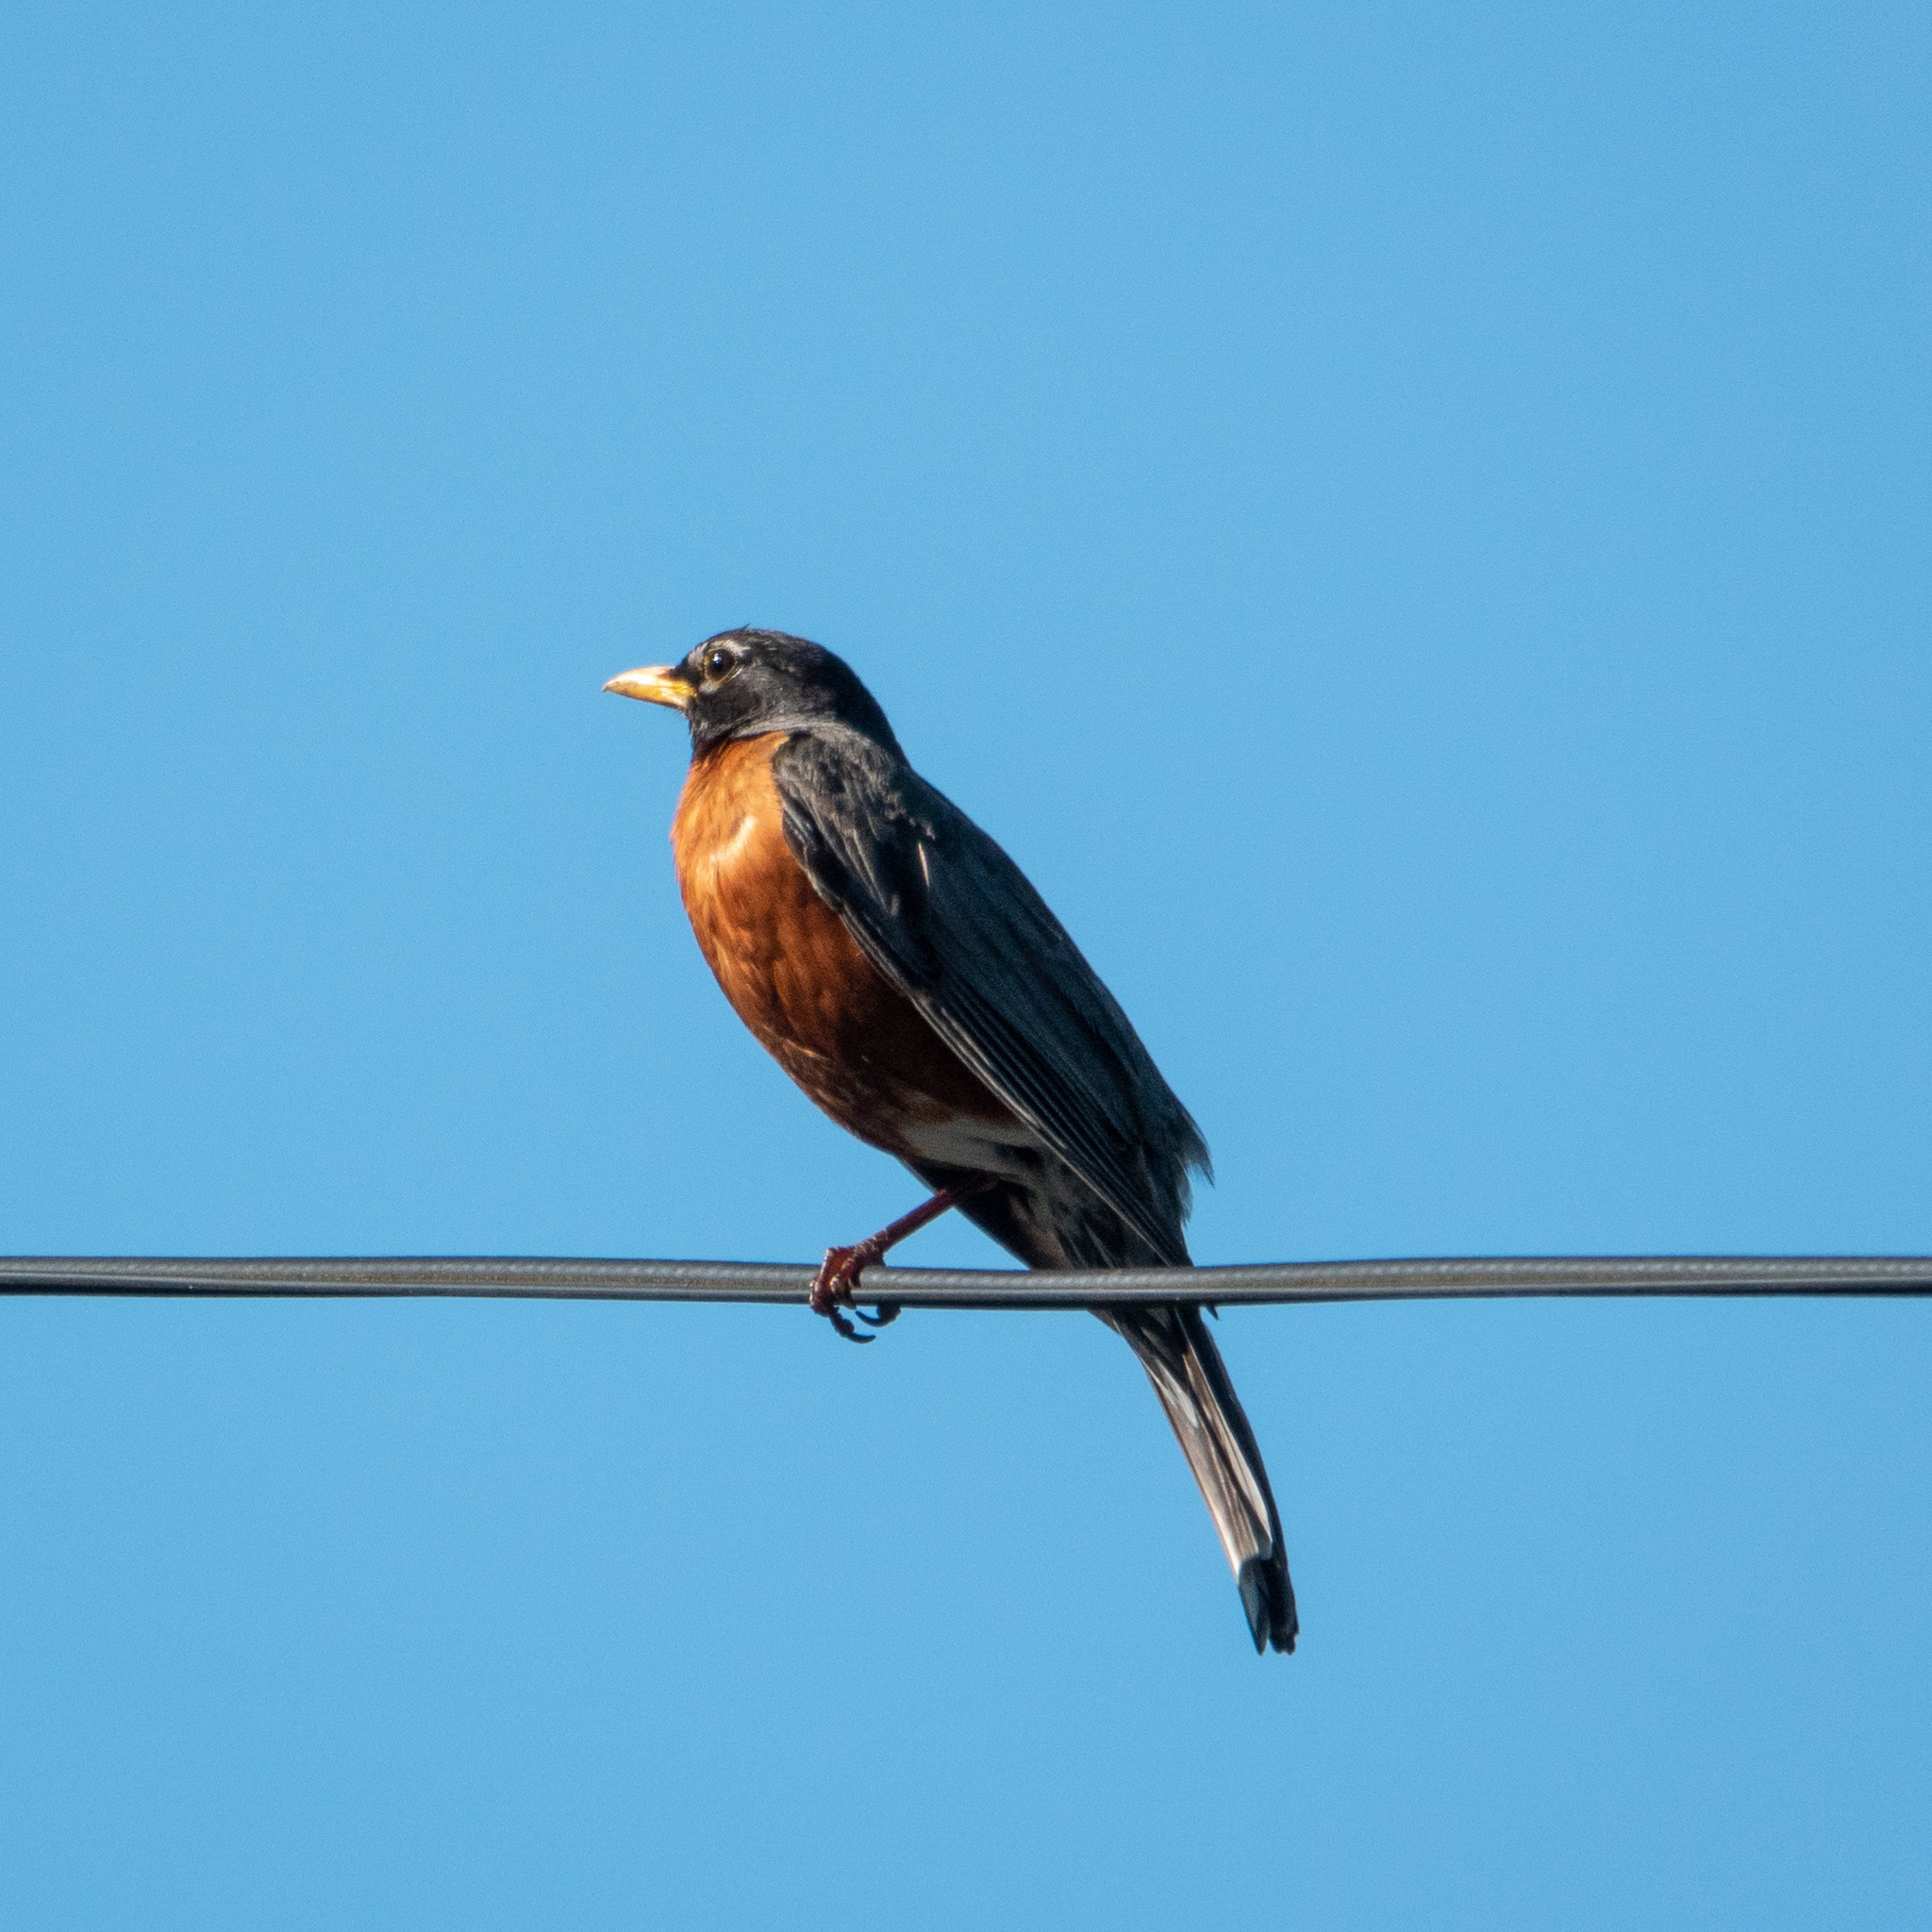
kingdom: Animalia
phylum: Chordata
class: Aves
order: Passeriformes
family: Turdidae
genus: Turdus
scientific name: Turdus migratorius
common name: American robin
